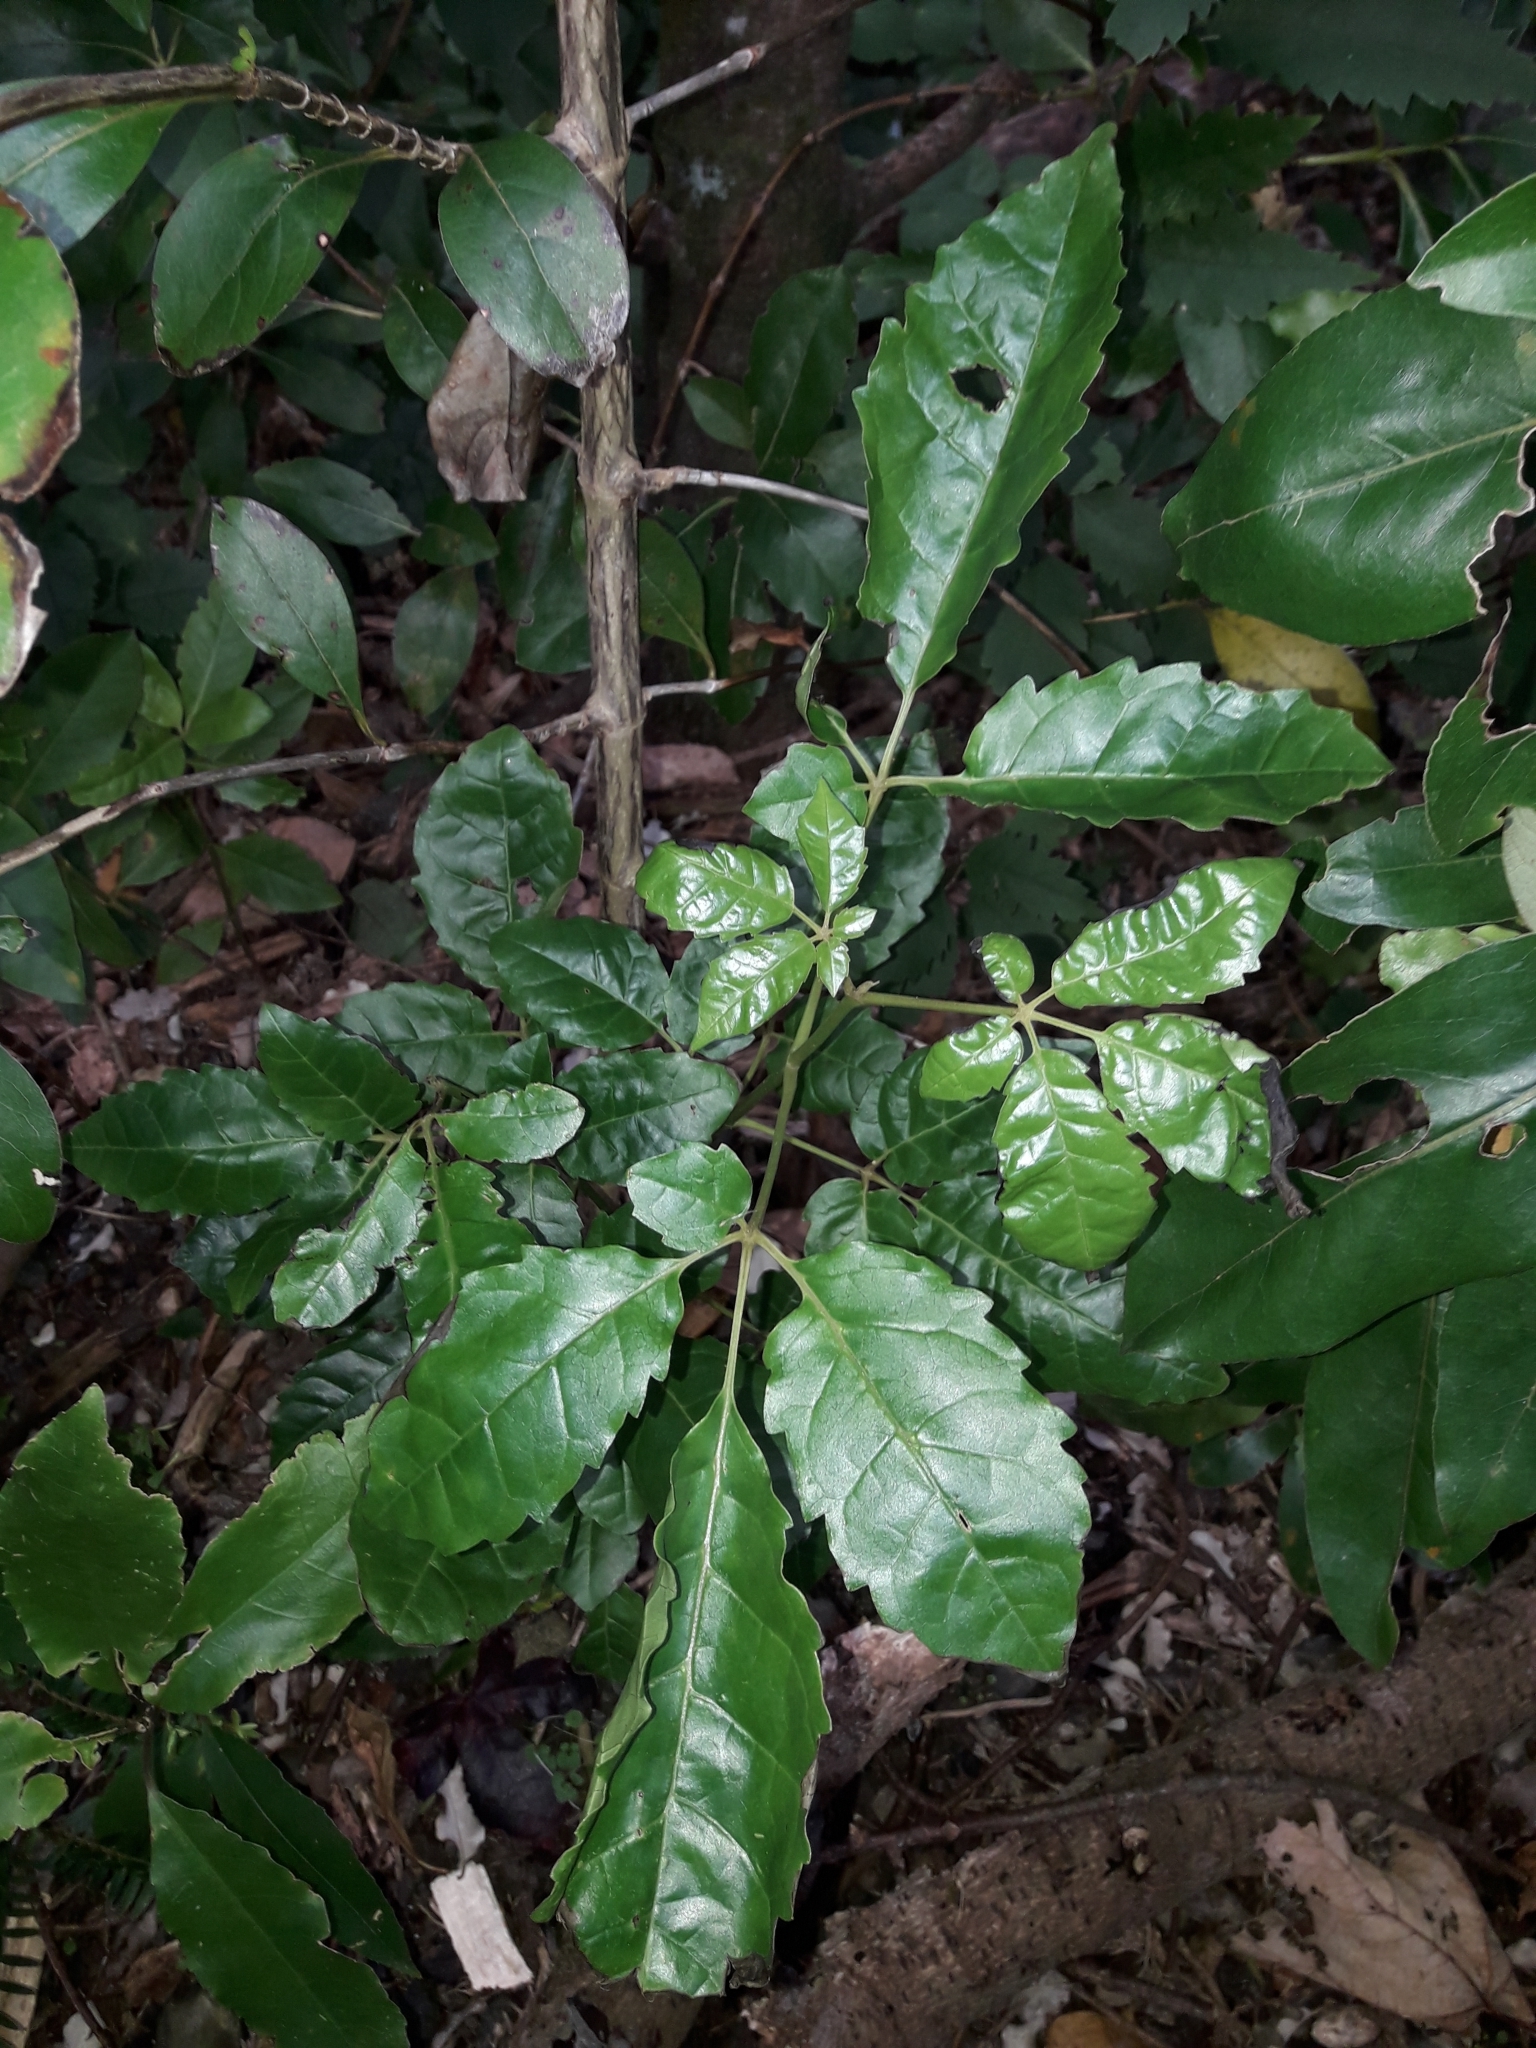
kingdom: Plantae
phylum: Tracheophyta
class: Magnoliopsida
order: Lamiales
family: Lamiaceae
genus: Vitex
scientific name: Vitex lucens
